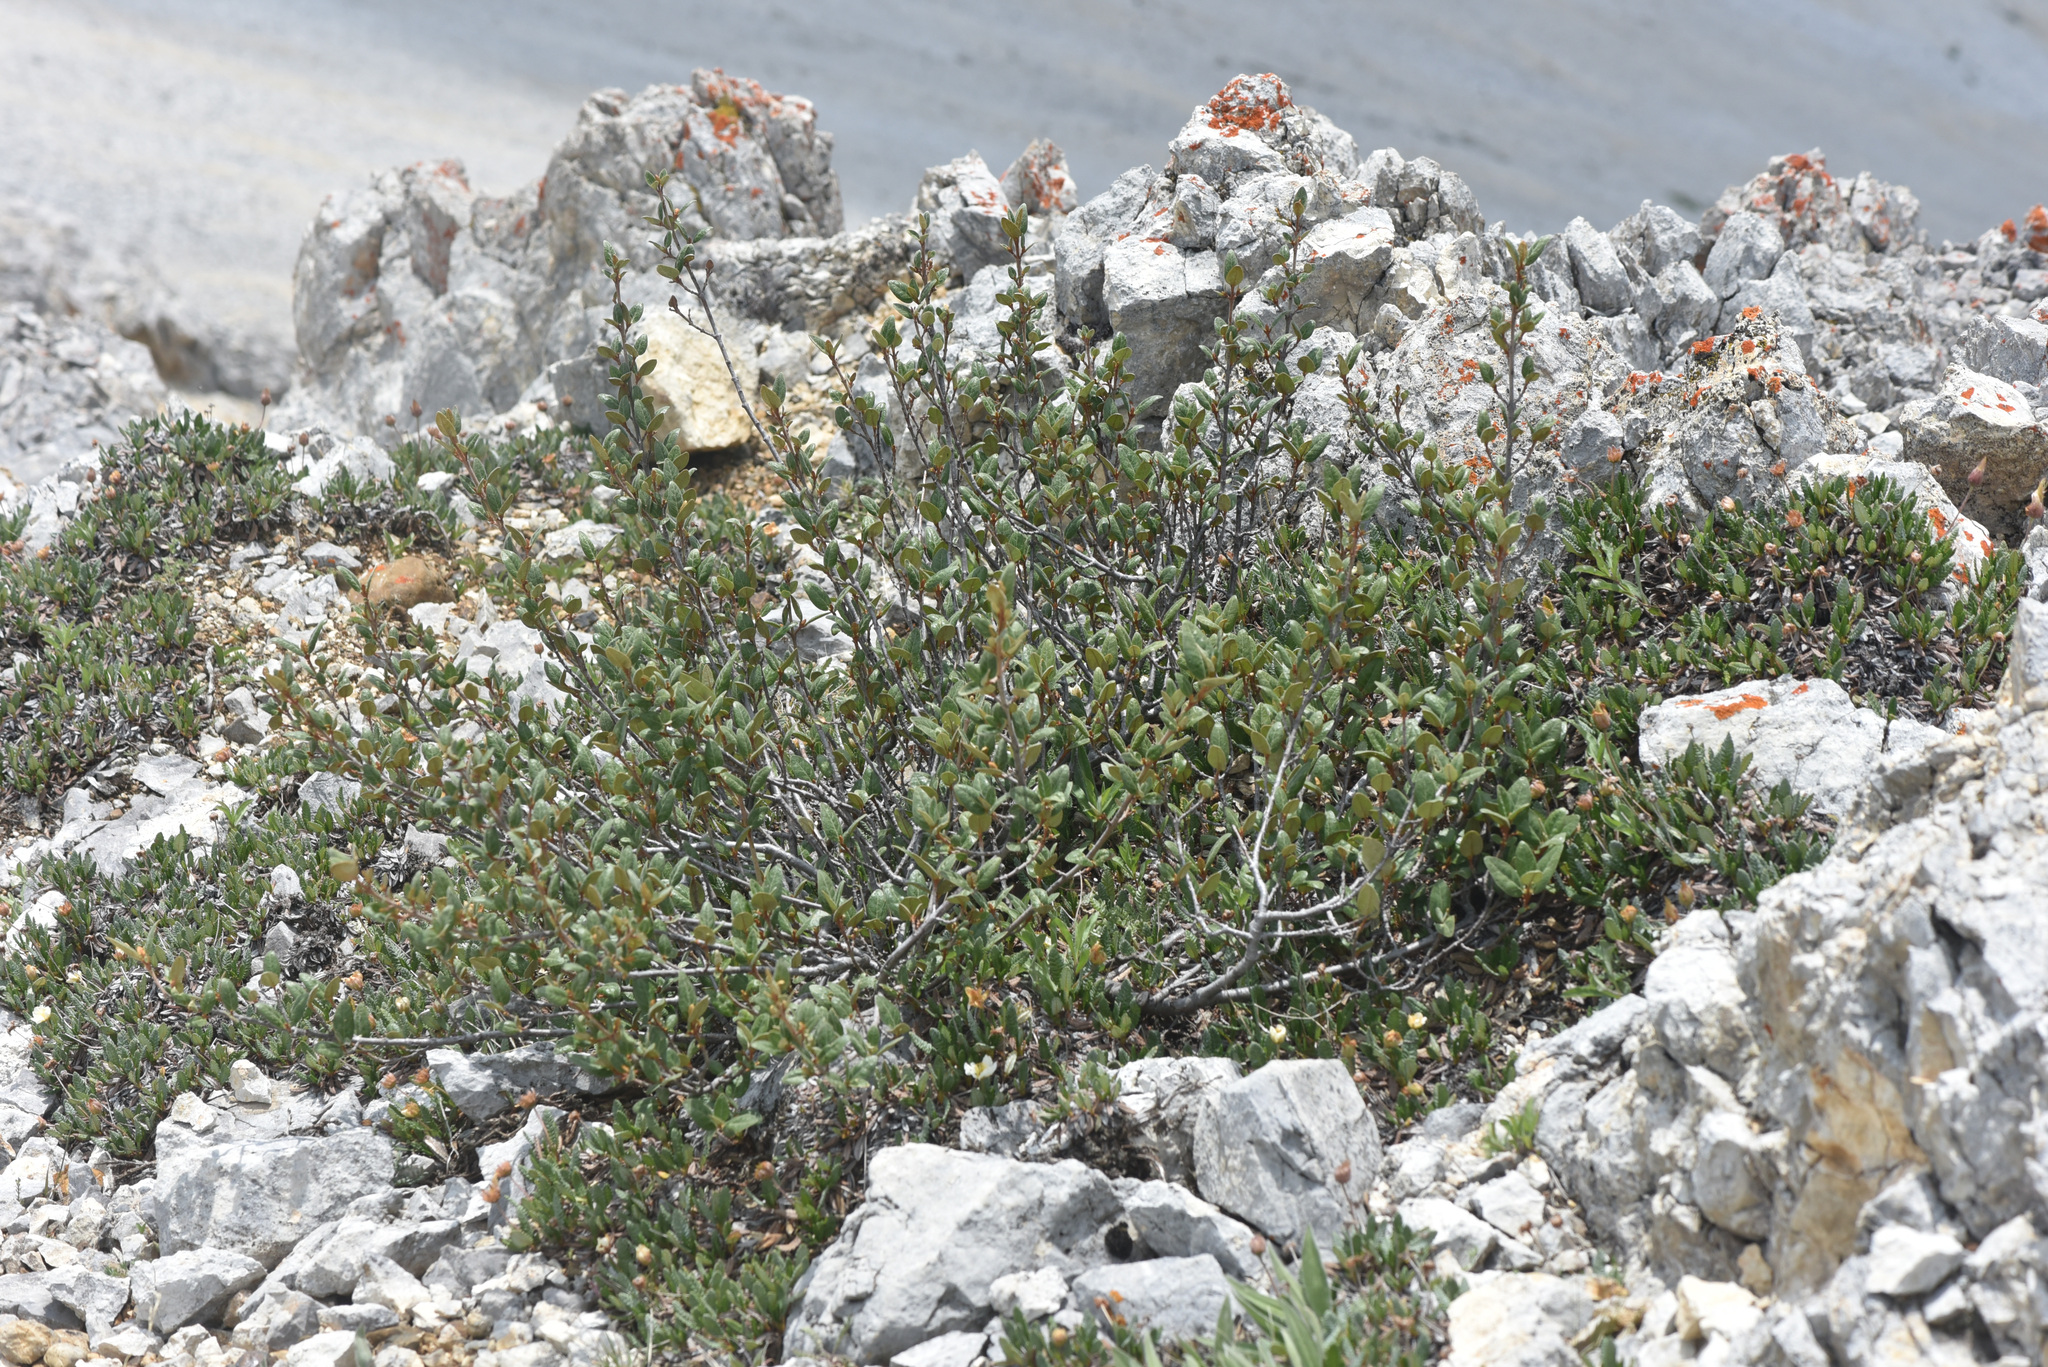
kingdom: Plantae
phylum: Tracheophyta
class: Magnoliopsida
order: Rosales
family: Elaeagnaceae
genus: Shepherdia
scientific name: Shepherdia canadensis
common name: Soapberry
